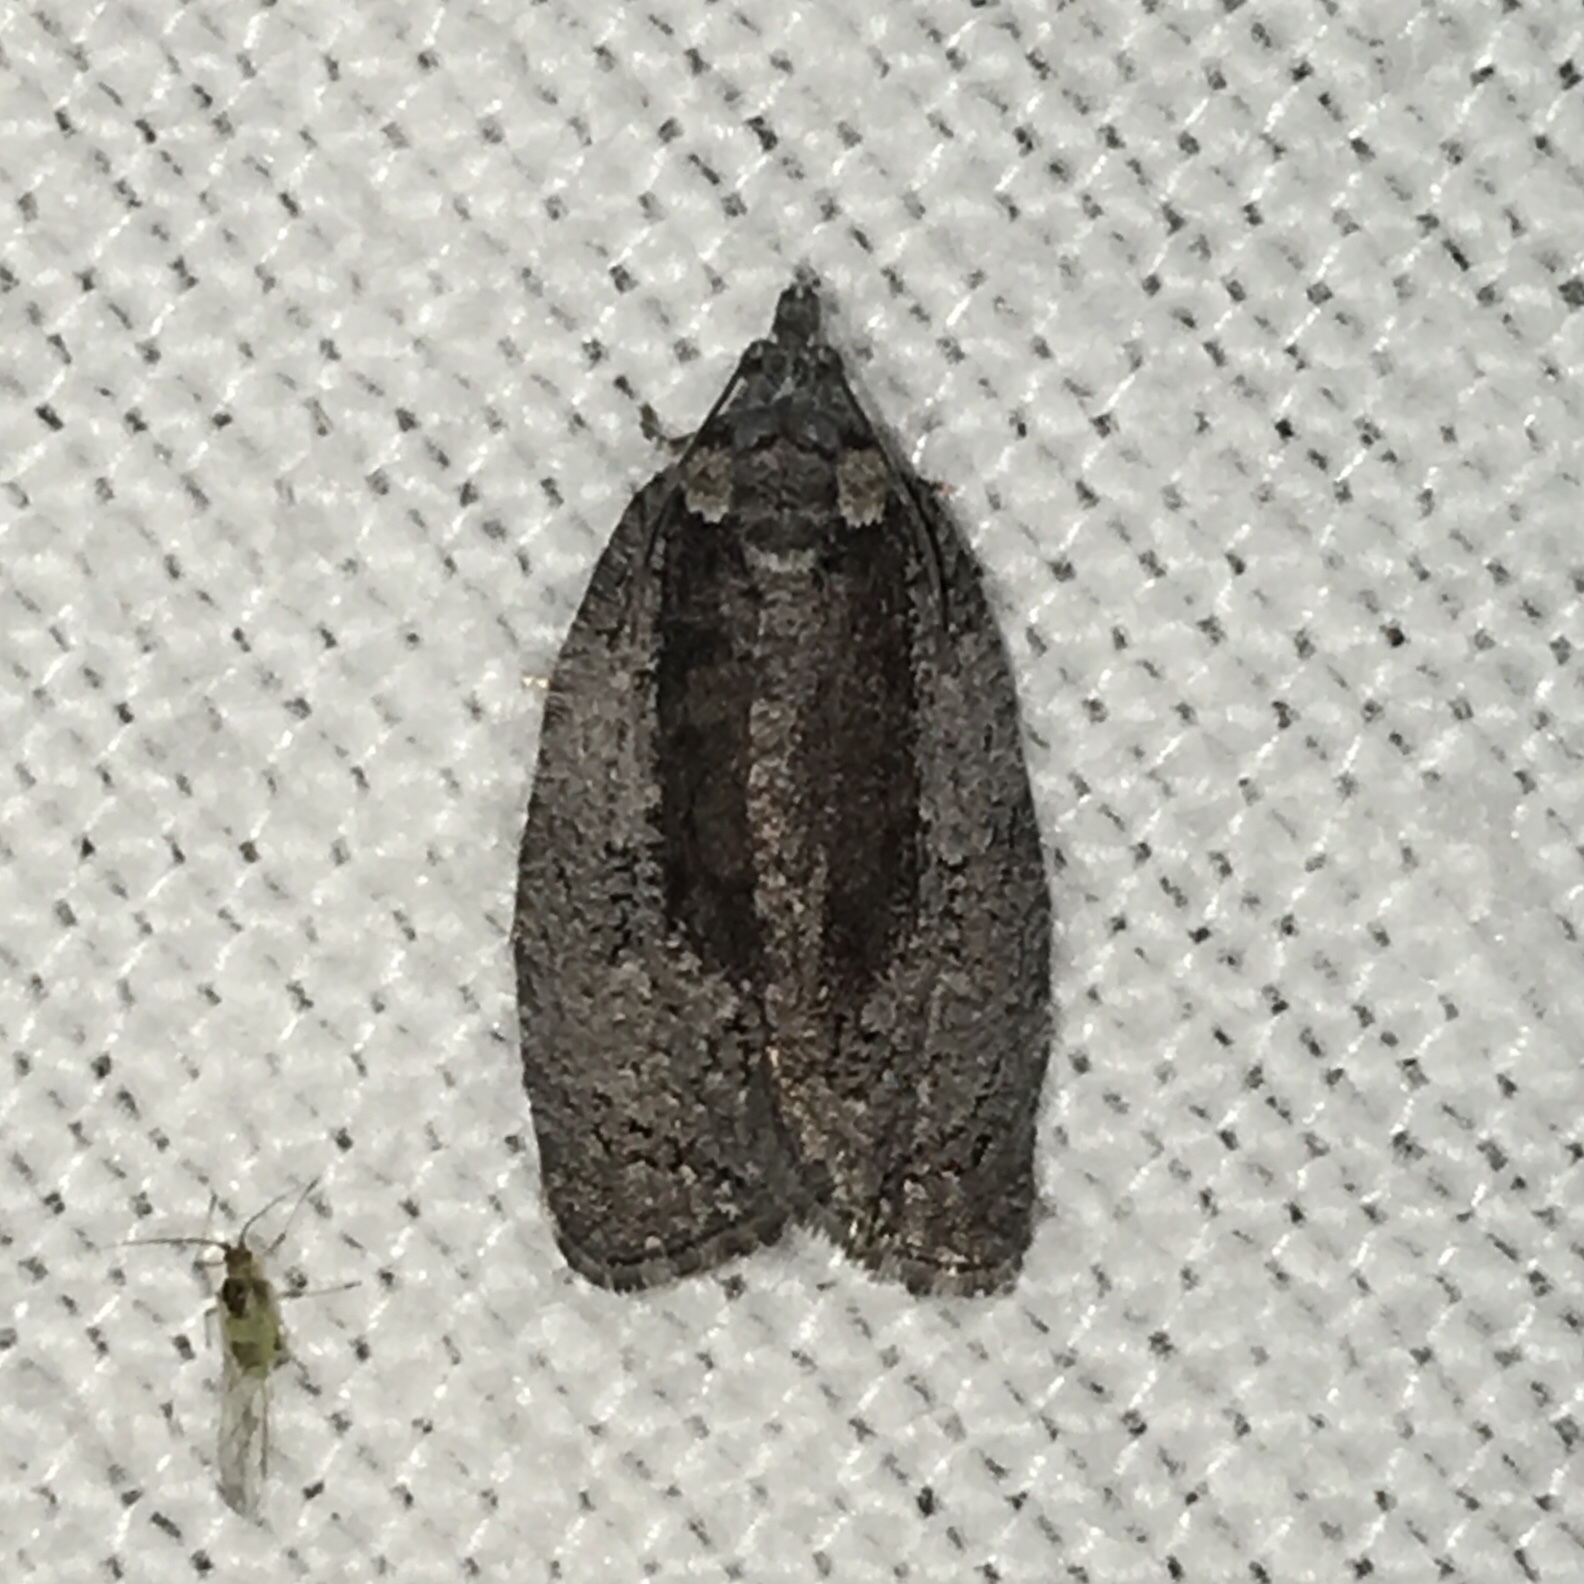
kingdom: Animalia
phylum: Arthropoda
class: Insecta
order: Lepidoptera
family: Tortricidae
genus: Apotomis
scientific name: Apotomis removana
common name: Green aspen leafroller
